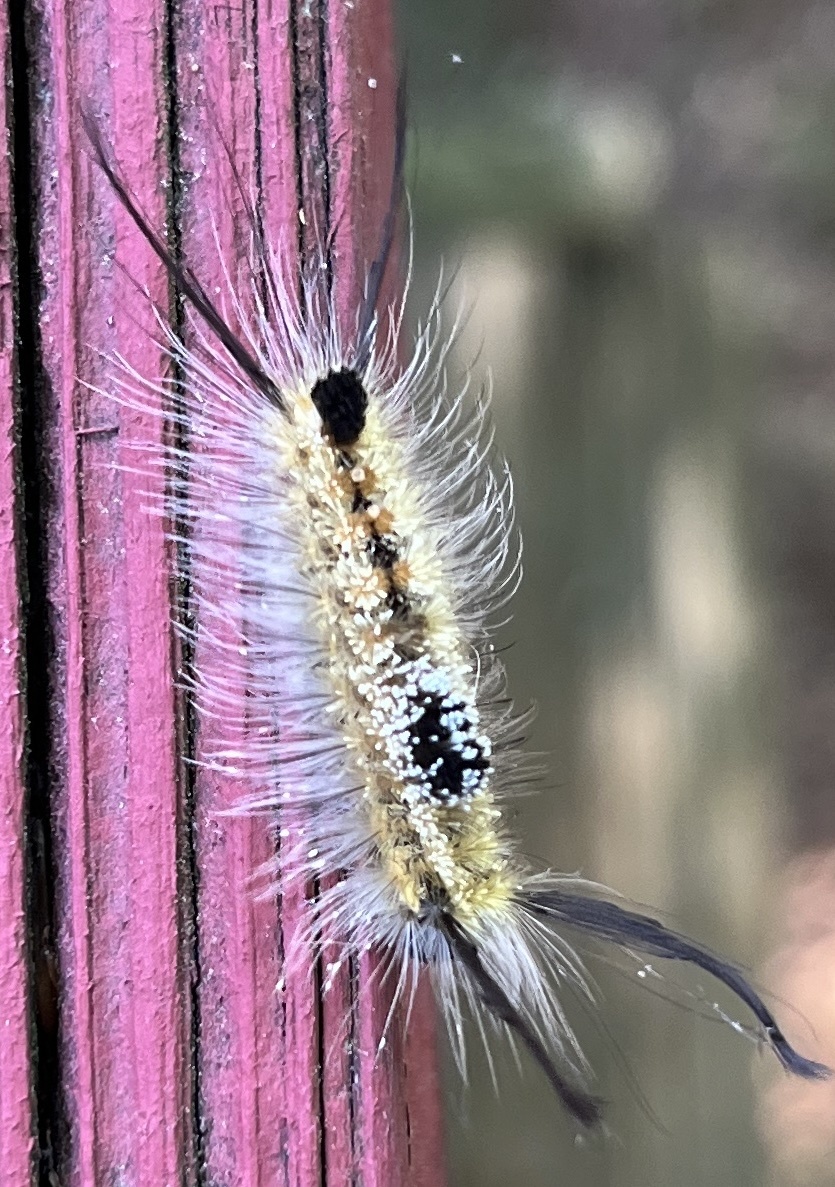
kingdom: Animalia
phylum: Arthropoda
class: Insecta
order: Lepidoptera
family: Erebidae
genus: Dasychira
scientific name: Dasychira basiflava
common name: Yellow-based tussock moth
